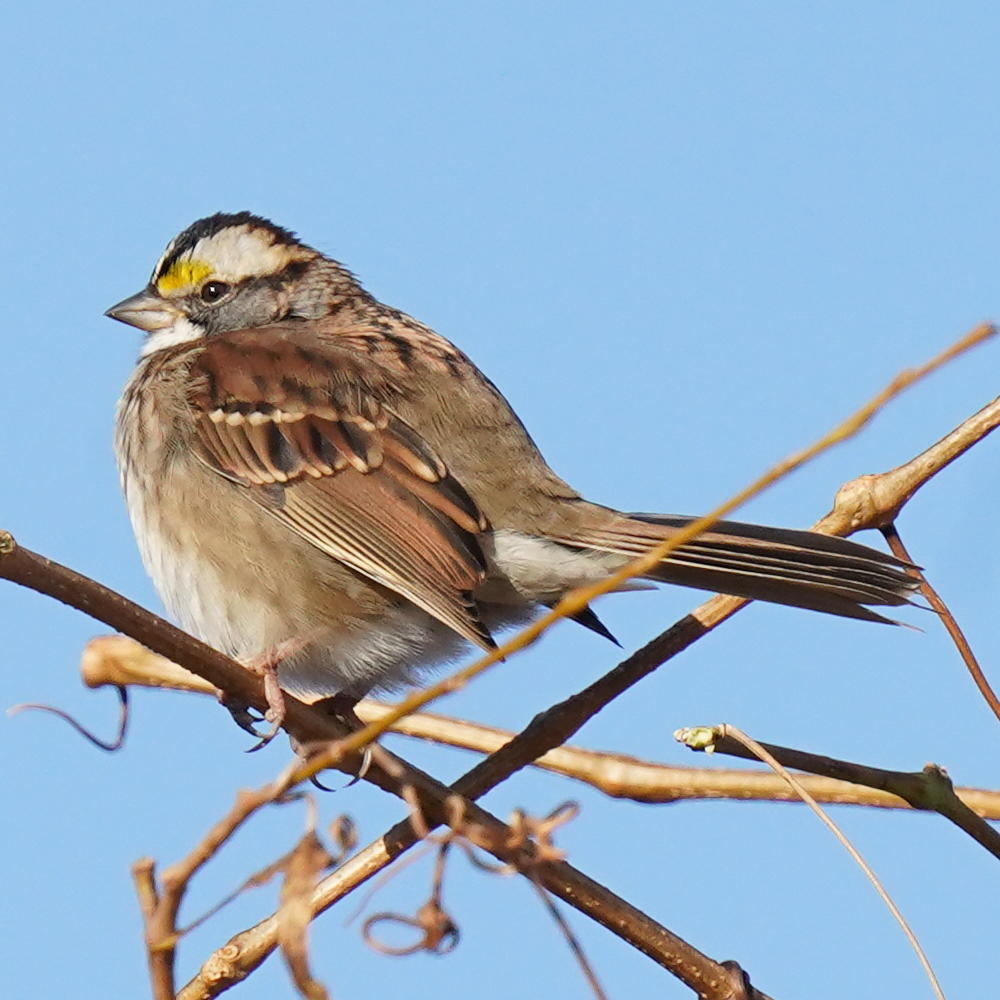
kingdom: Animalia
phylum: Chordata
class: Aves
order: Passeriformes
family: Passerellidae
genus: Zonotrichia
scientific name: Zonotrichia albicollis
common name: White-throated sparrow
